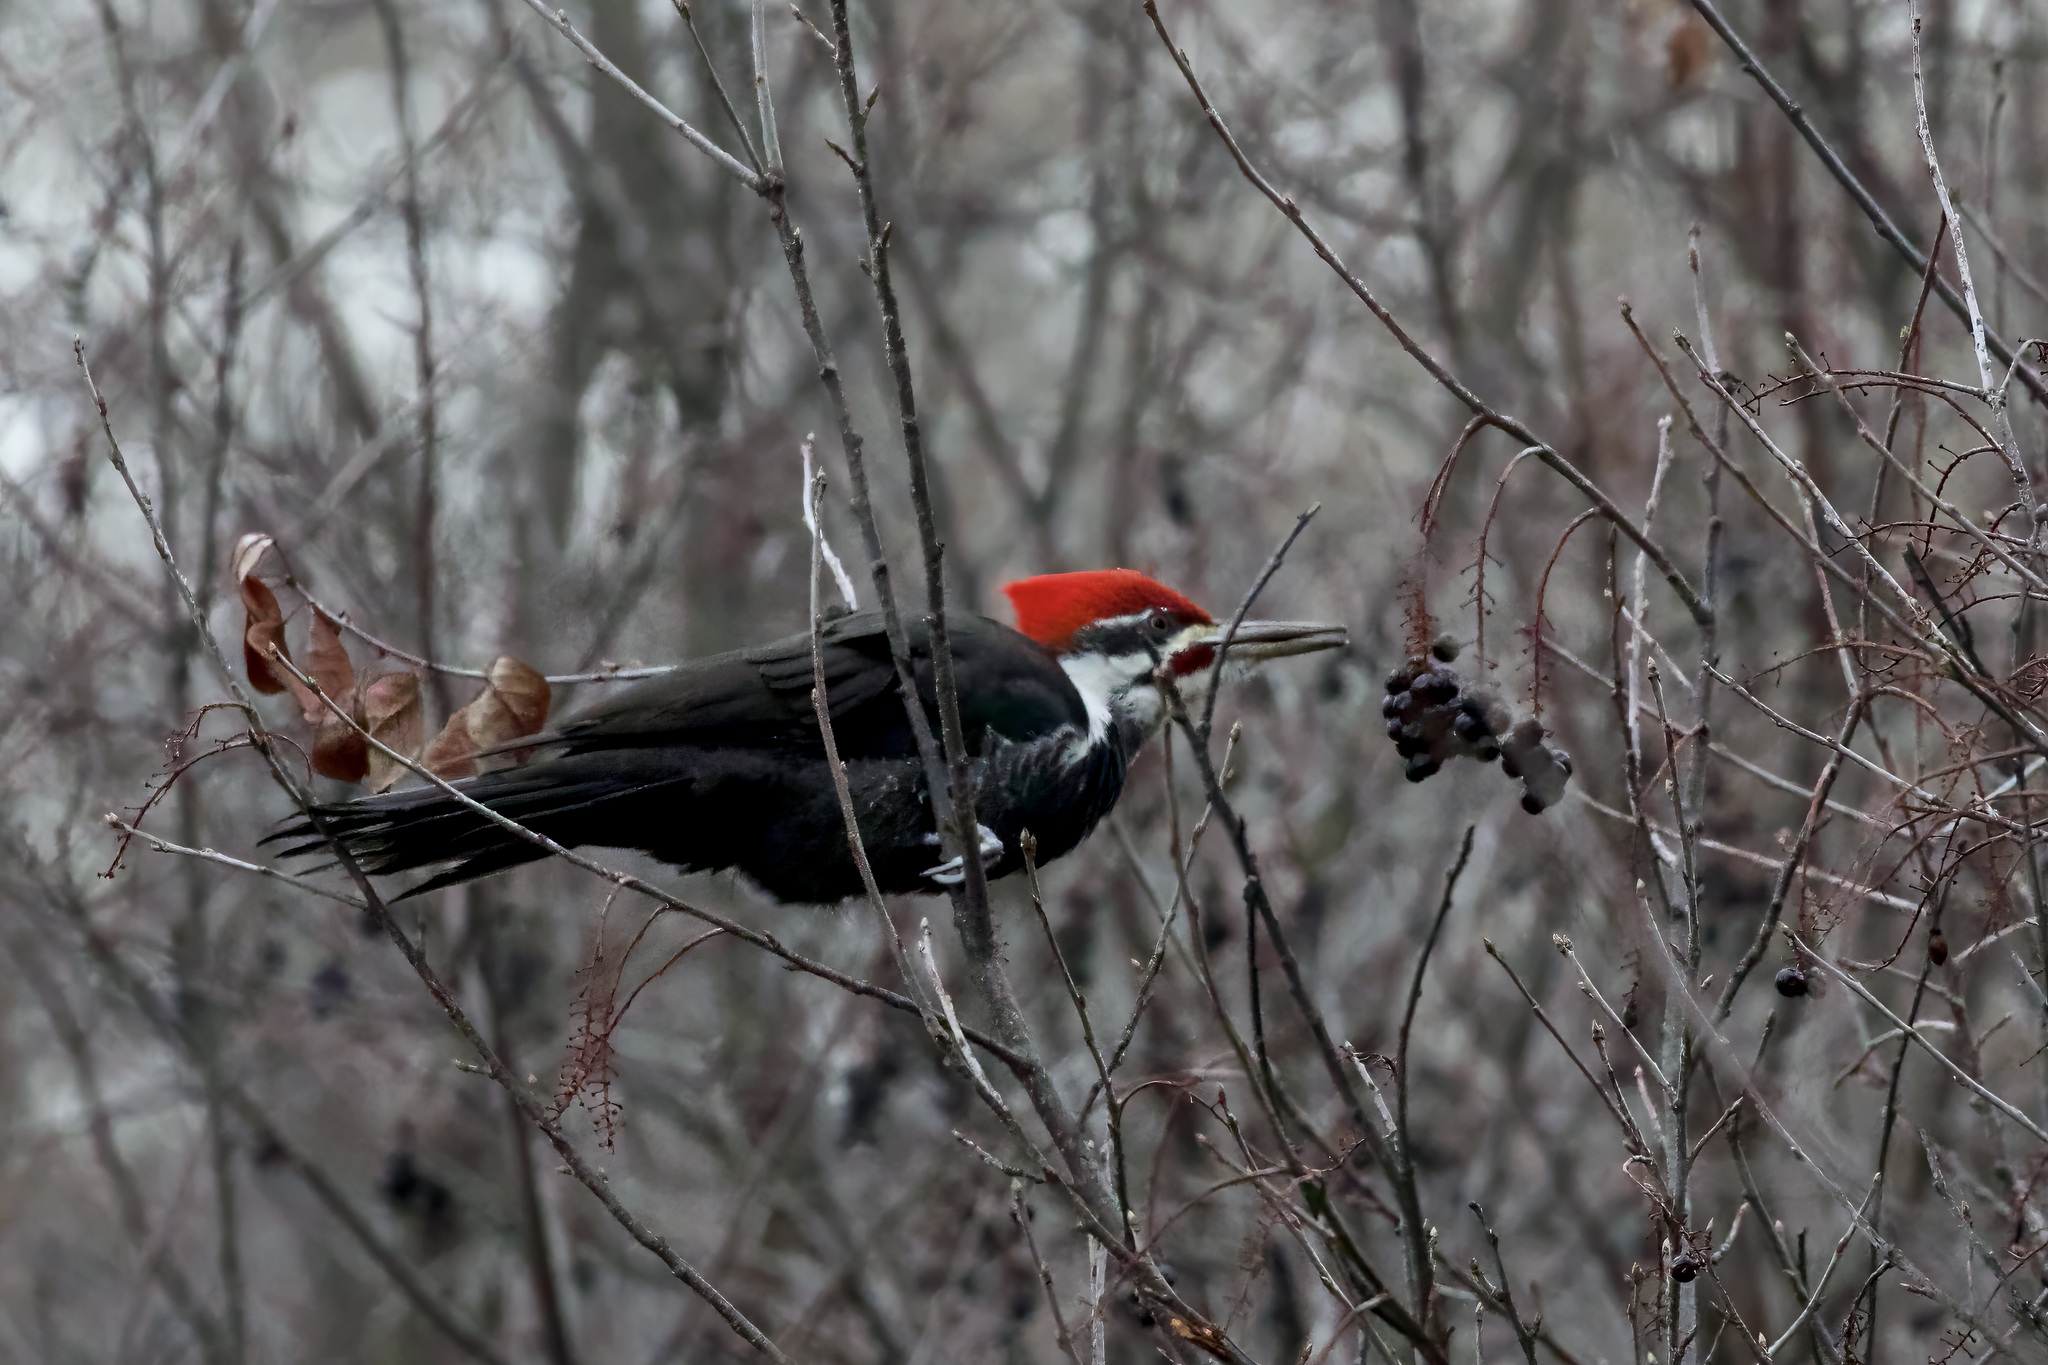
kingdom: Animalia
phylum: Chordata
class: Aves
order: Piciformes
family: Picidae
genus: Dryocopus
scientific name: Dryocopus pileatus
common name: Pileated woodpecker
